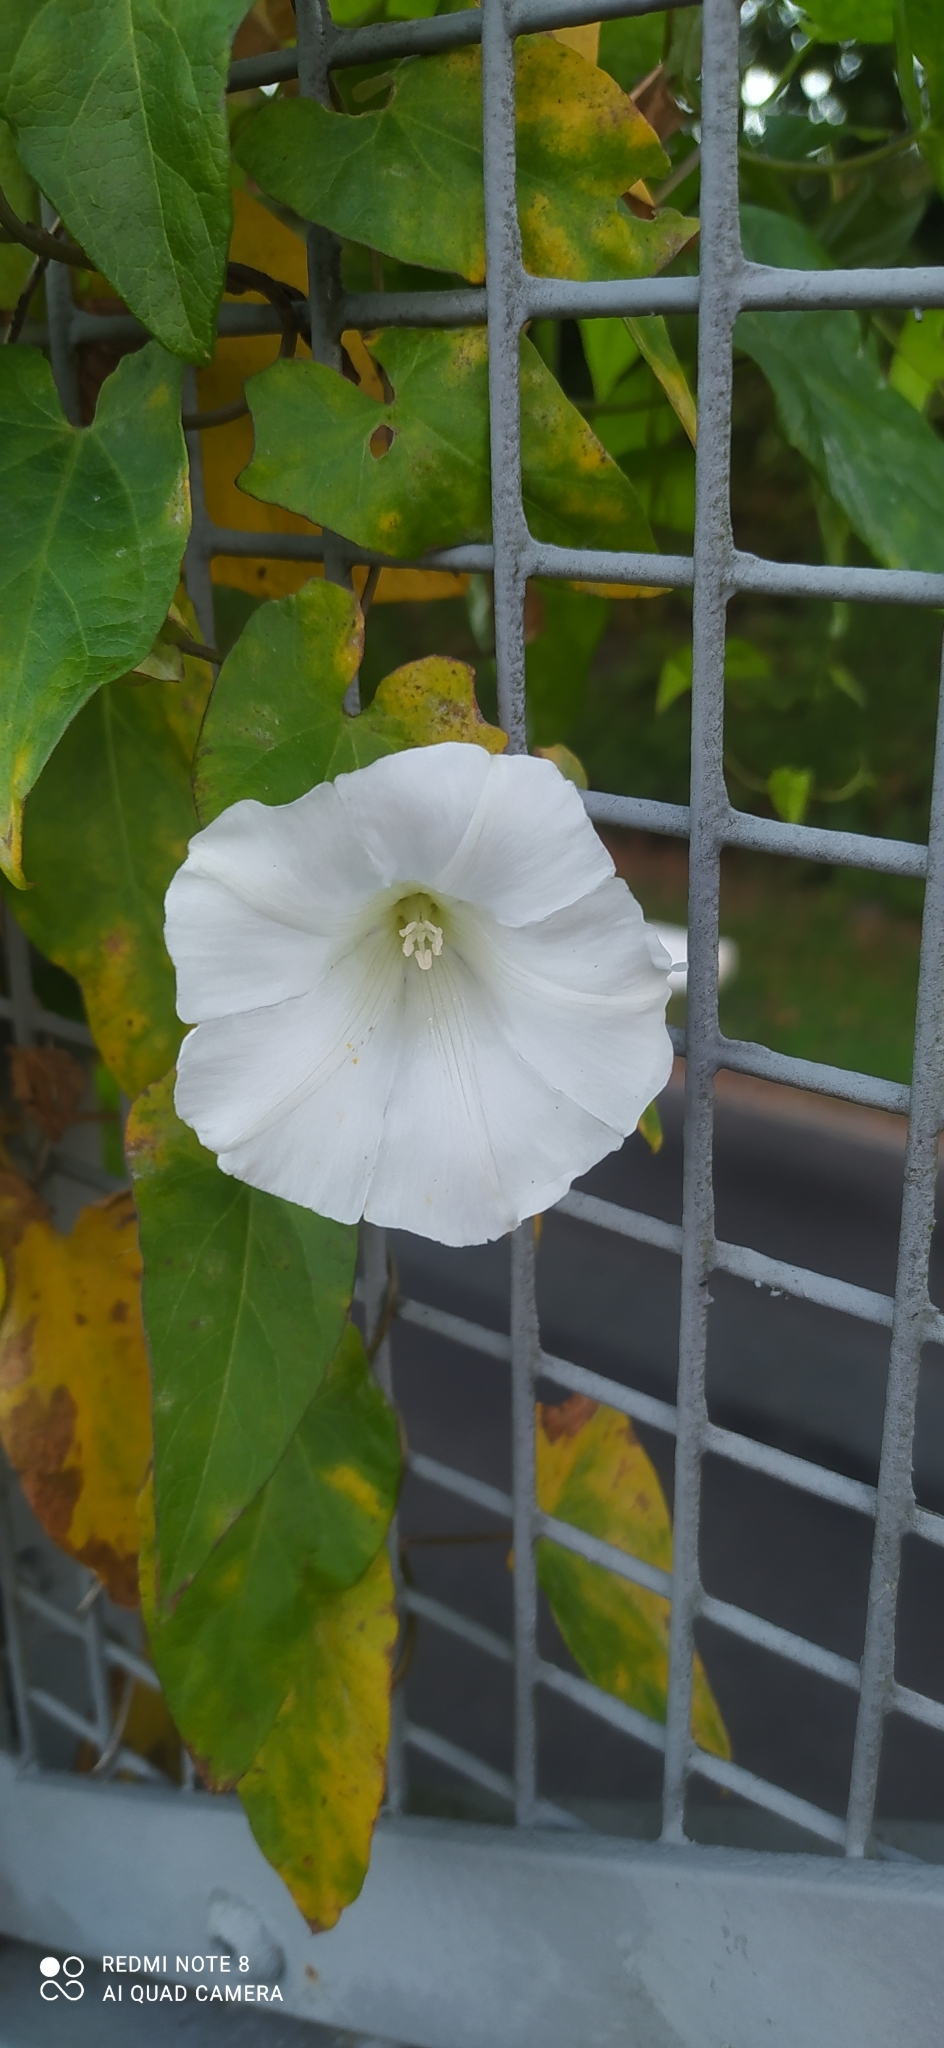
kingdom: Plantae
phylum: Tracheophyta
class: Magnoliopsida
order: Solanales
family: Convolvulaceae
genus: Calystegia
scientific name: Calystegia sepium
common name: Hedge bindweed
